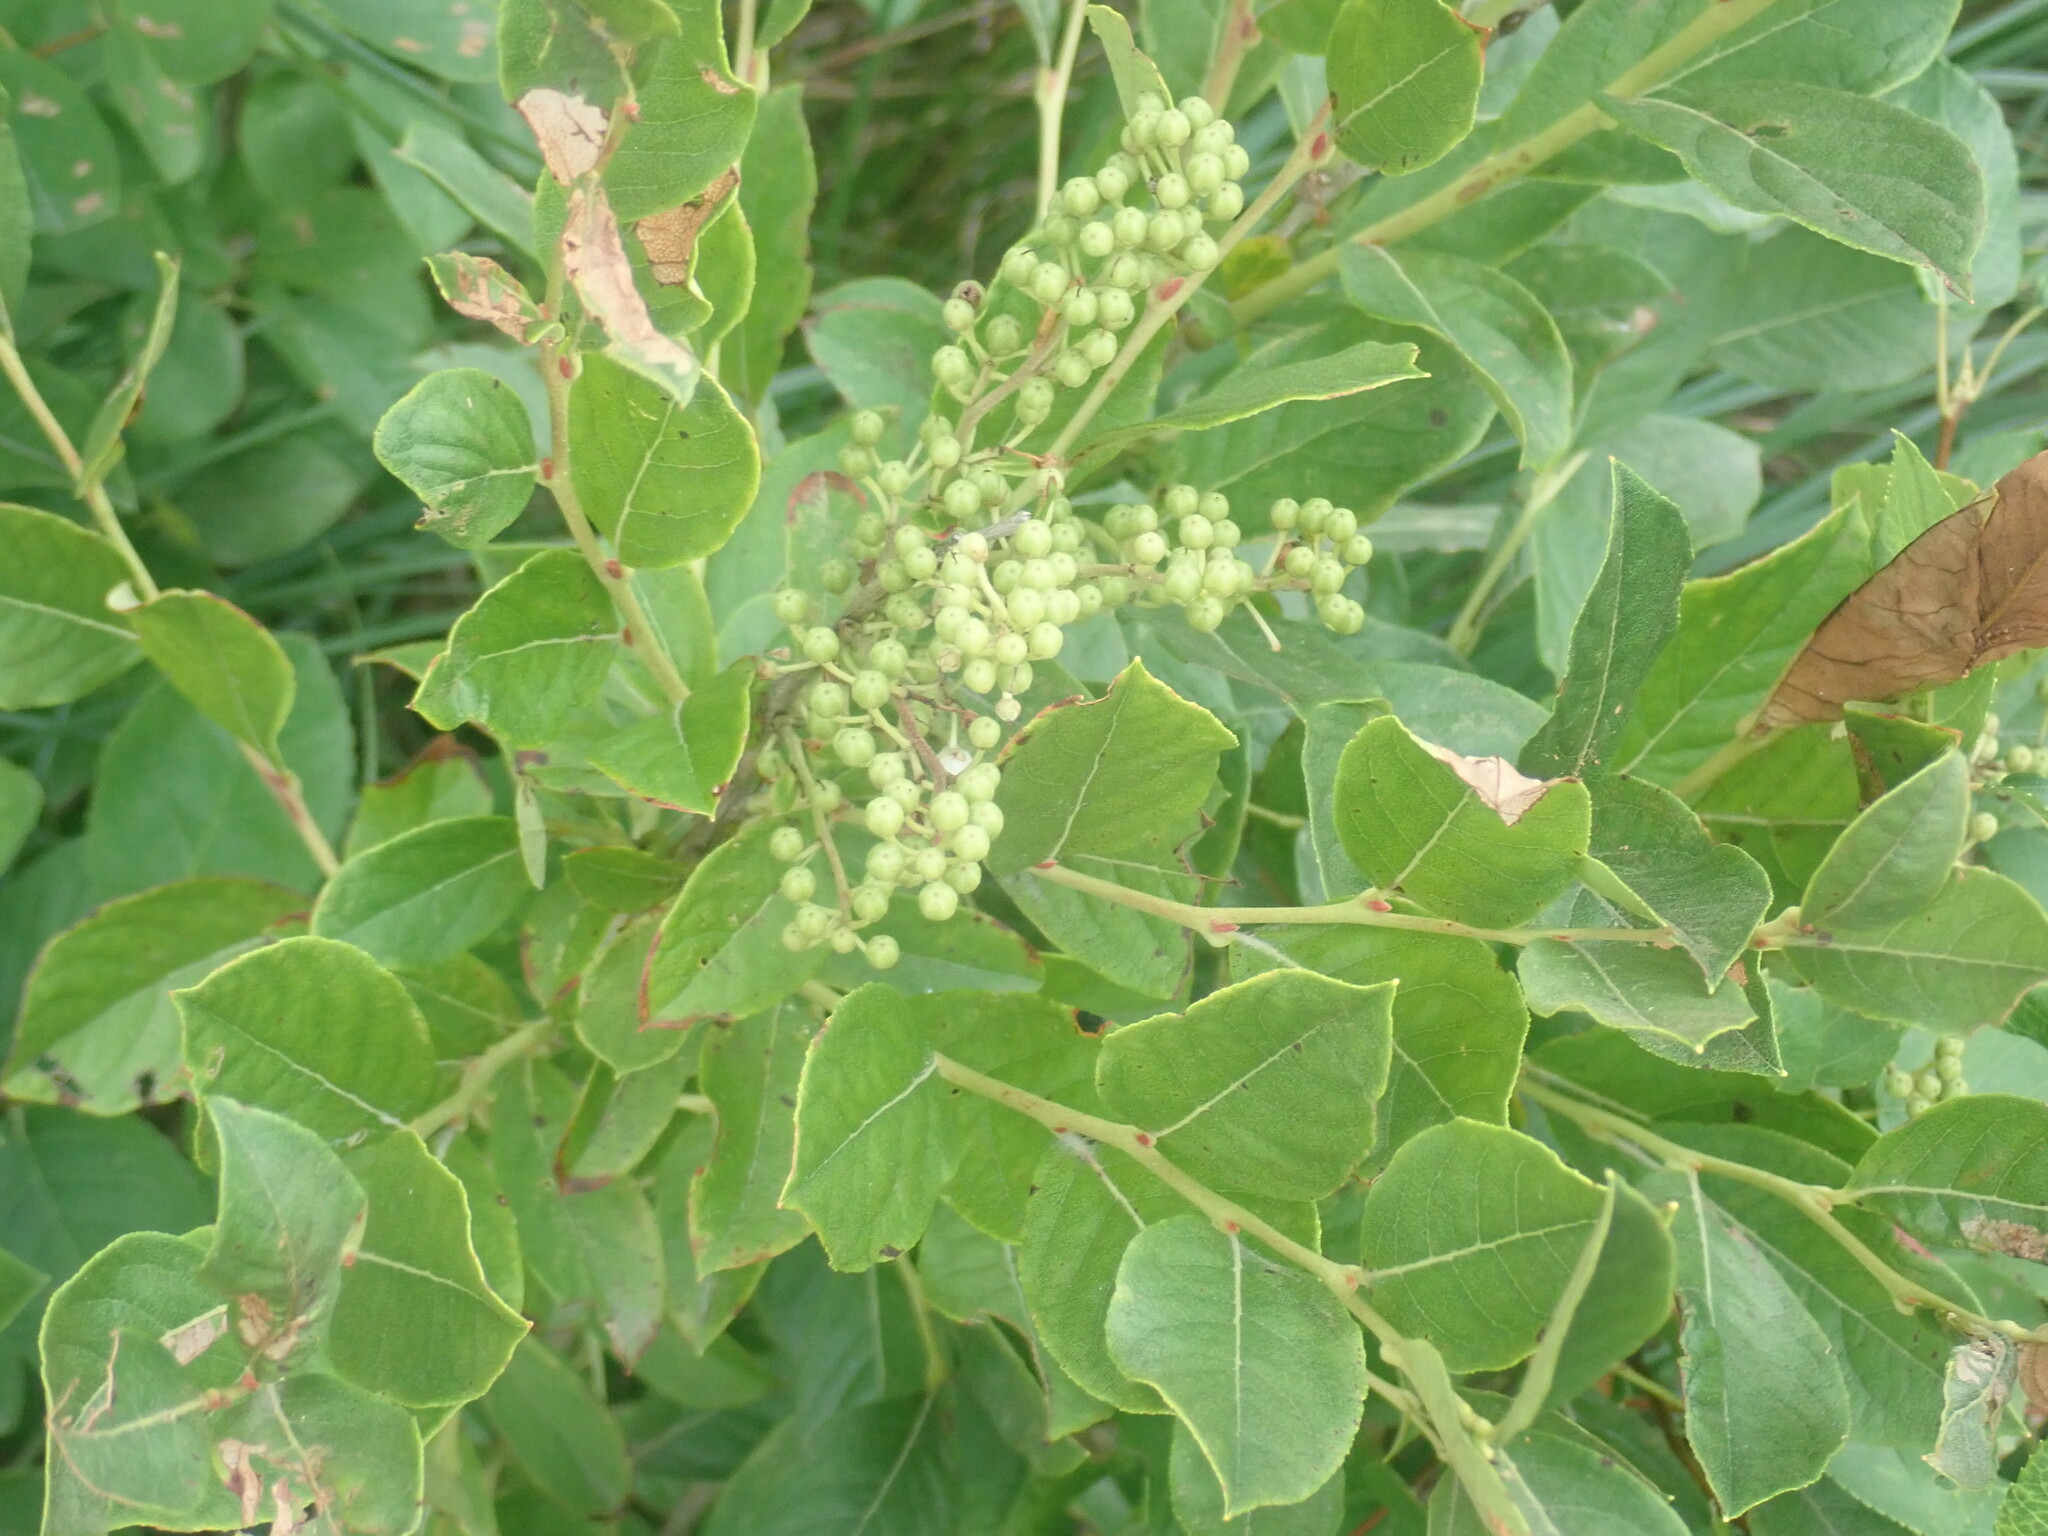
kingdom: Plantae
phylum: Tracheophyta
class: Magnoliopsida
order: Ericales
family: Ericaceae
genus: Lyonia
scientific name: Lyonia ligustrina
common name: Maleberry
